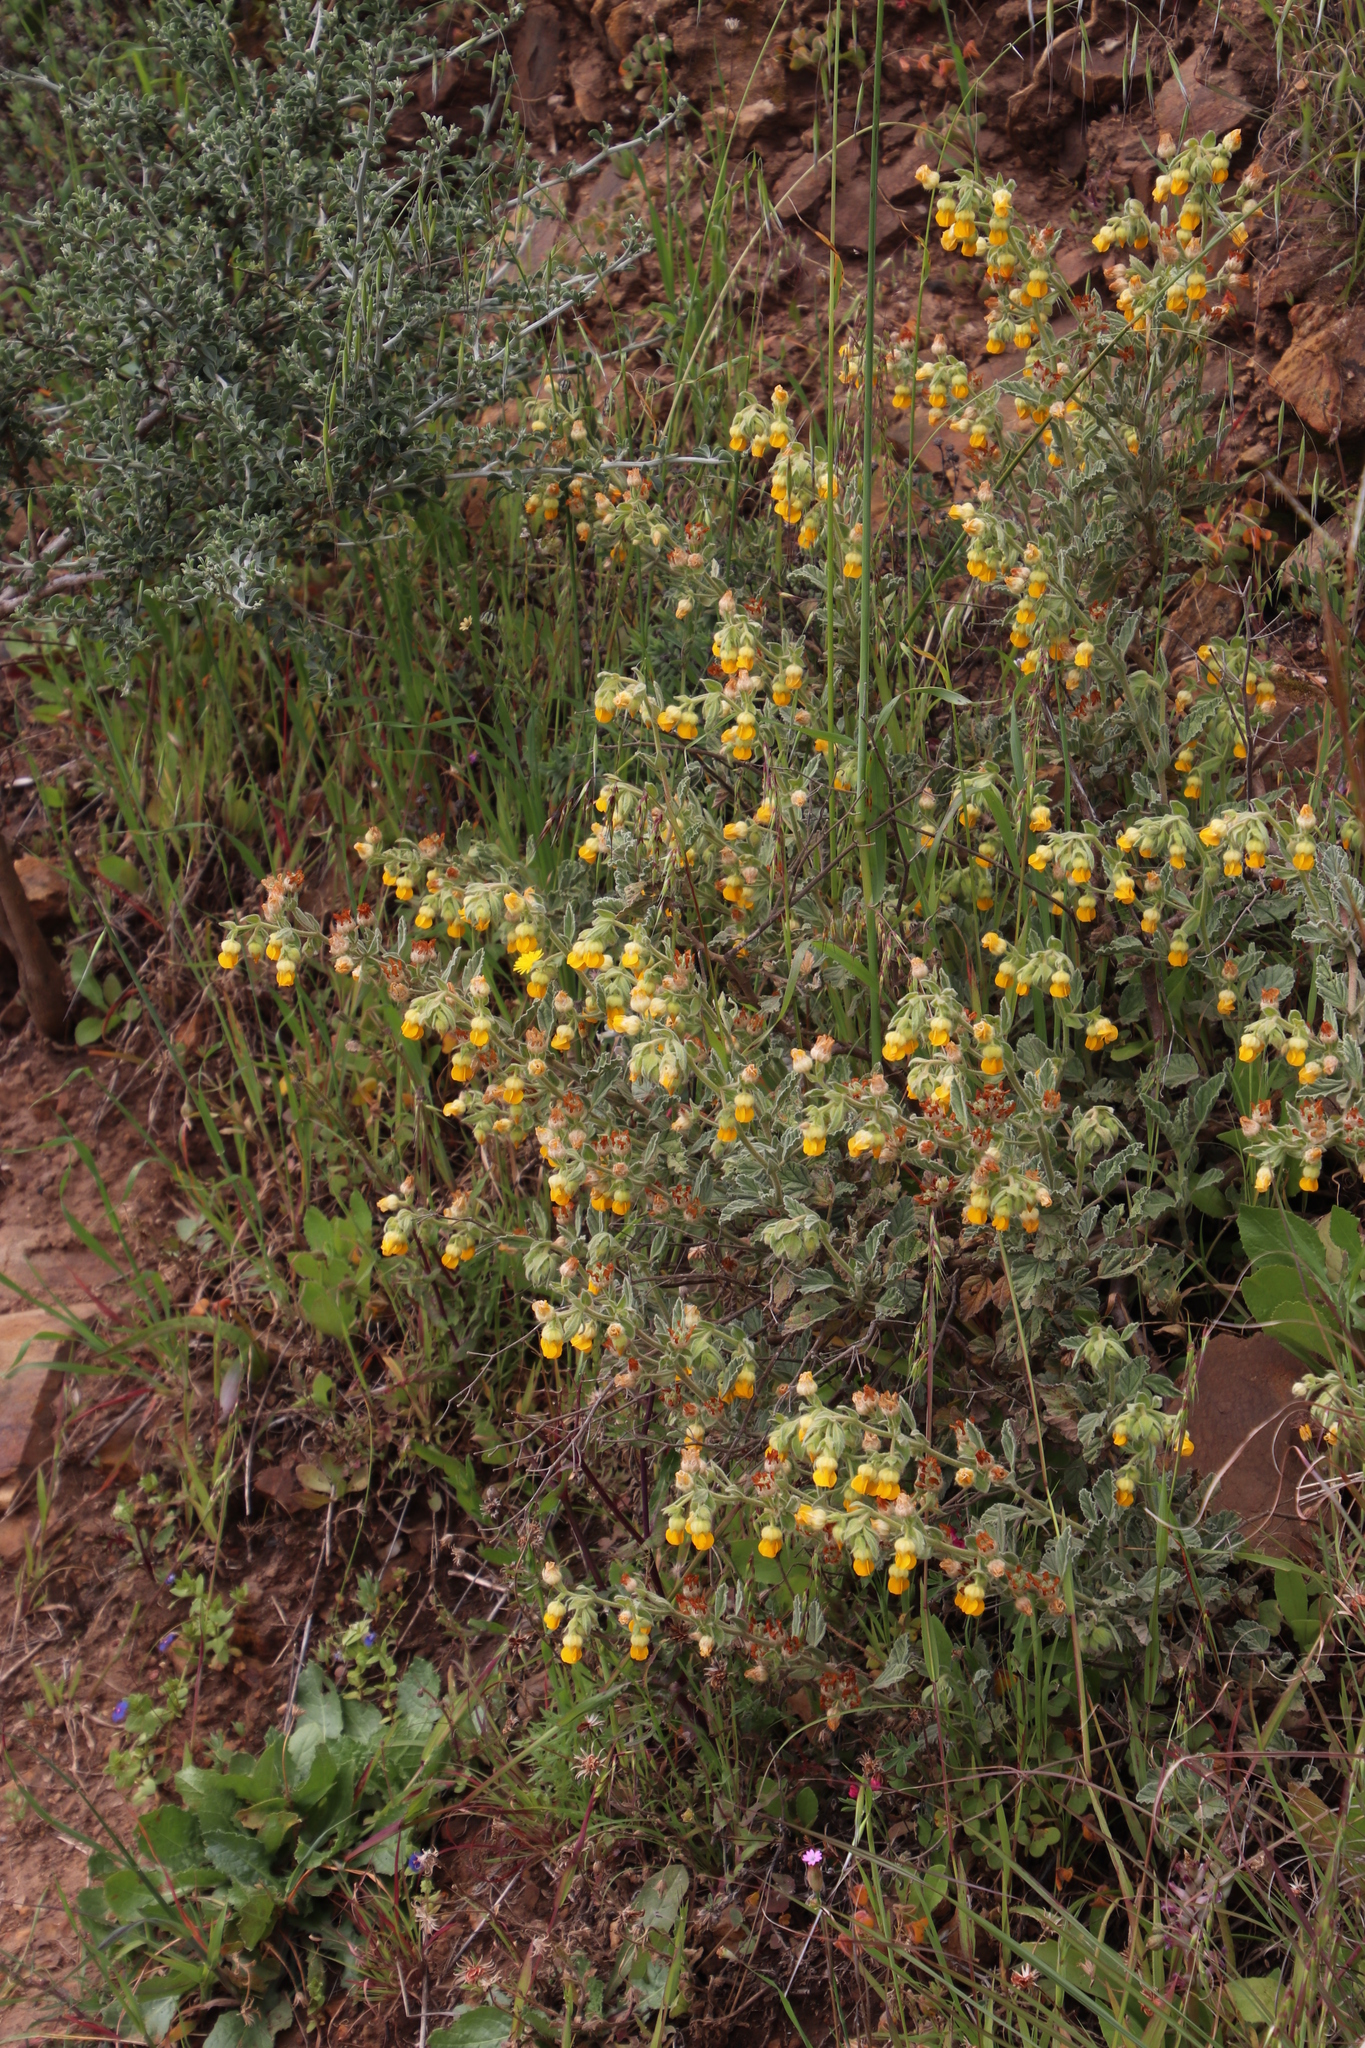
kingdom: Plantae
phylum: Tracheophyta
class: Magnoliopsida
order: Malvales
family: Malvaceae
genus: Hermannia
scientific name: Hermannia althaeifolia
